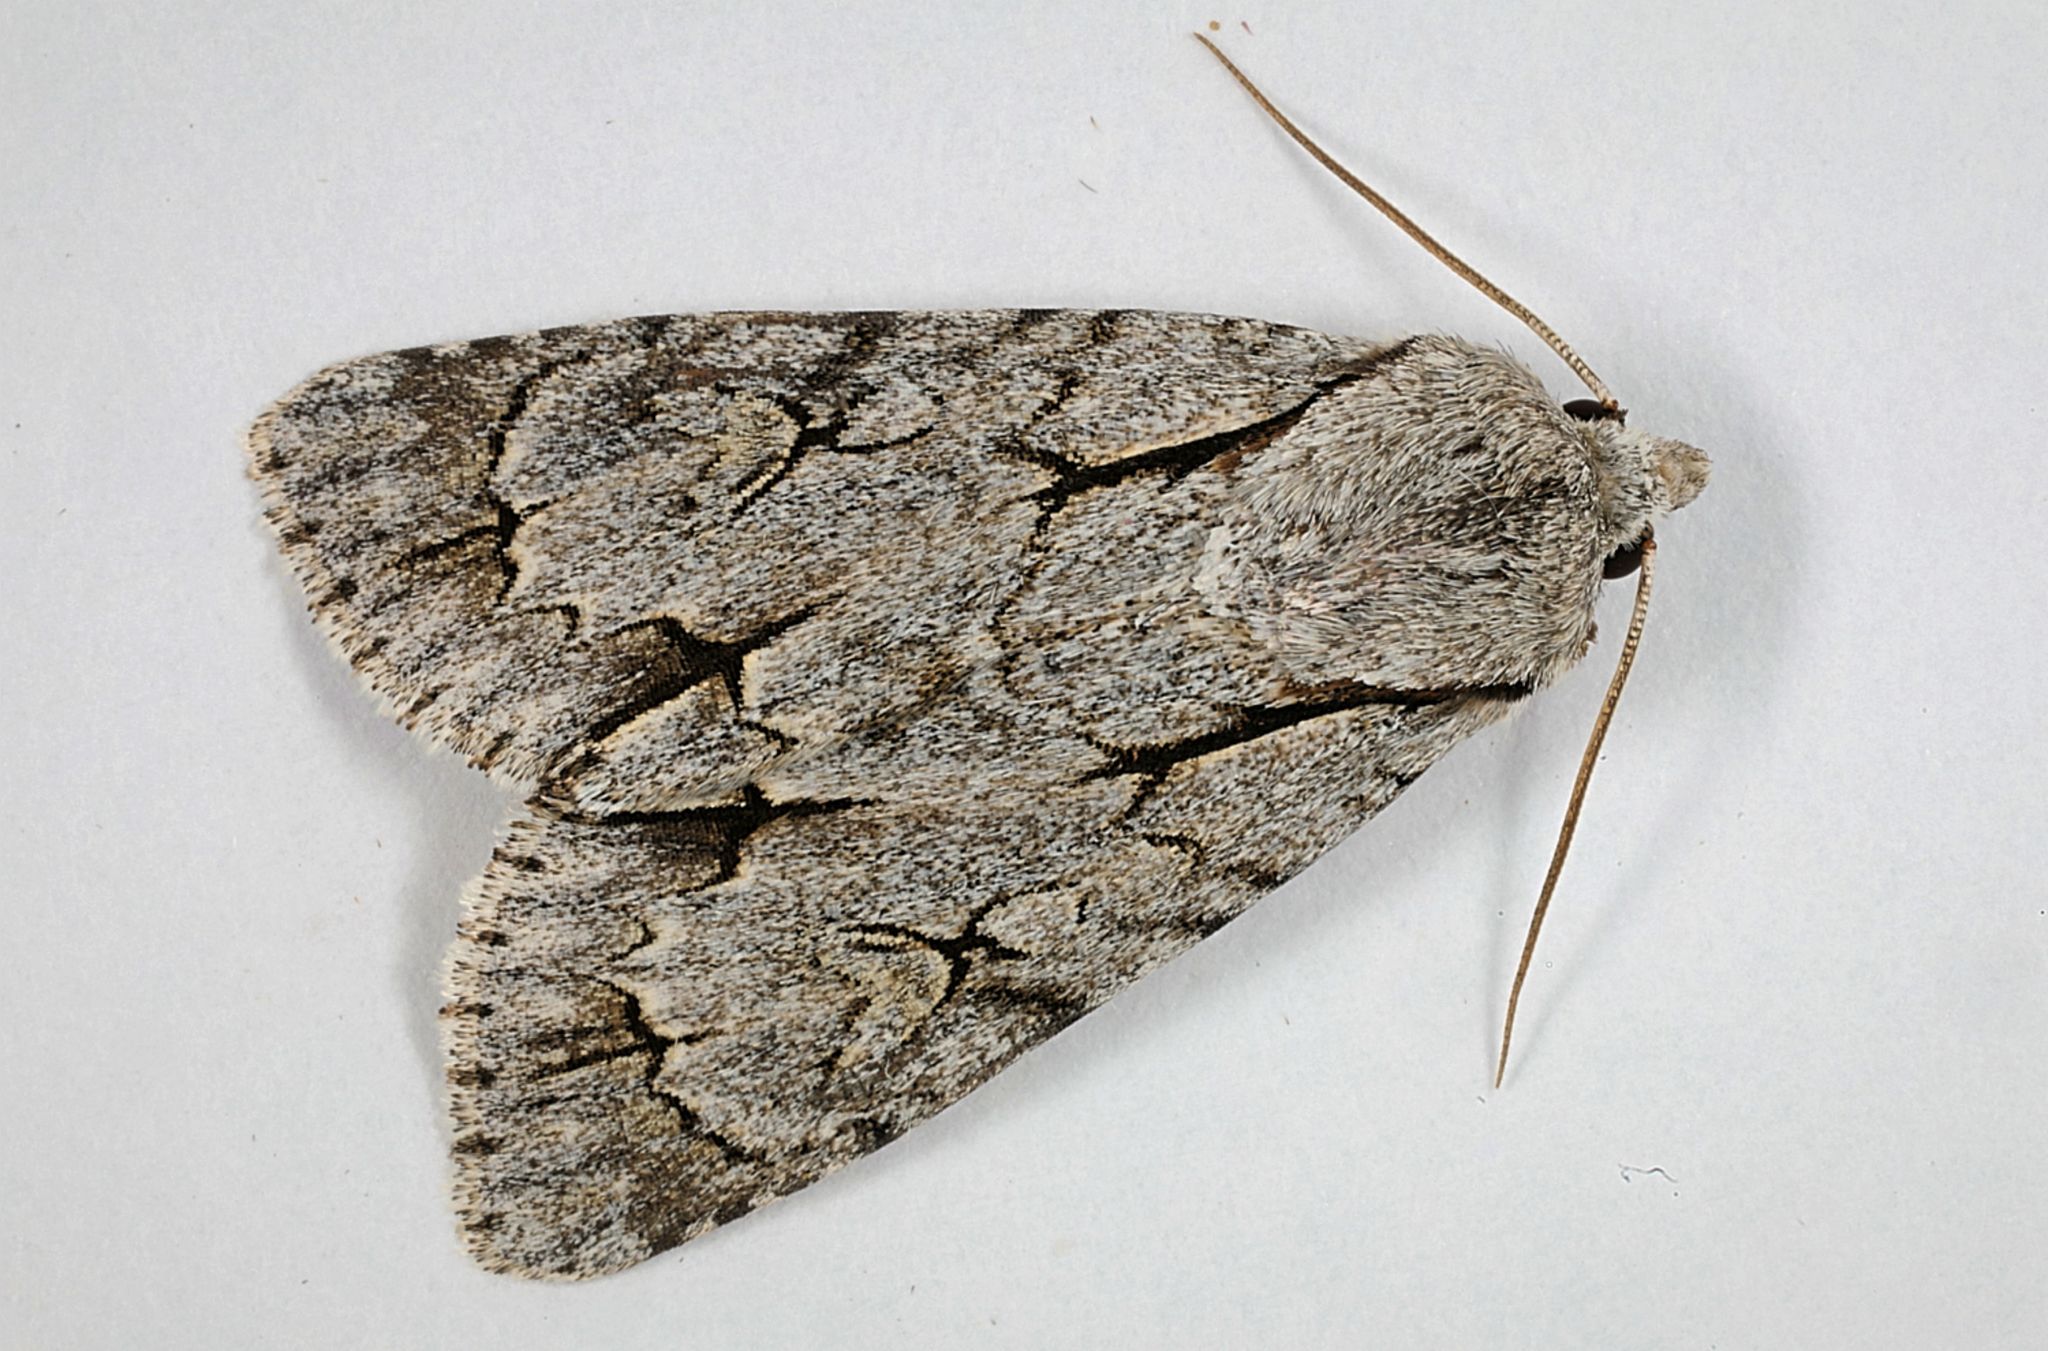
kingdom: Animalia
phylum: Arthropoda
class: Insecta
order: Lepidoptera
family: Noctuidae
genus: Acronicta
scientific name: Acronicta psi
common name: Grey dagger
